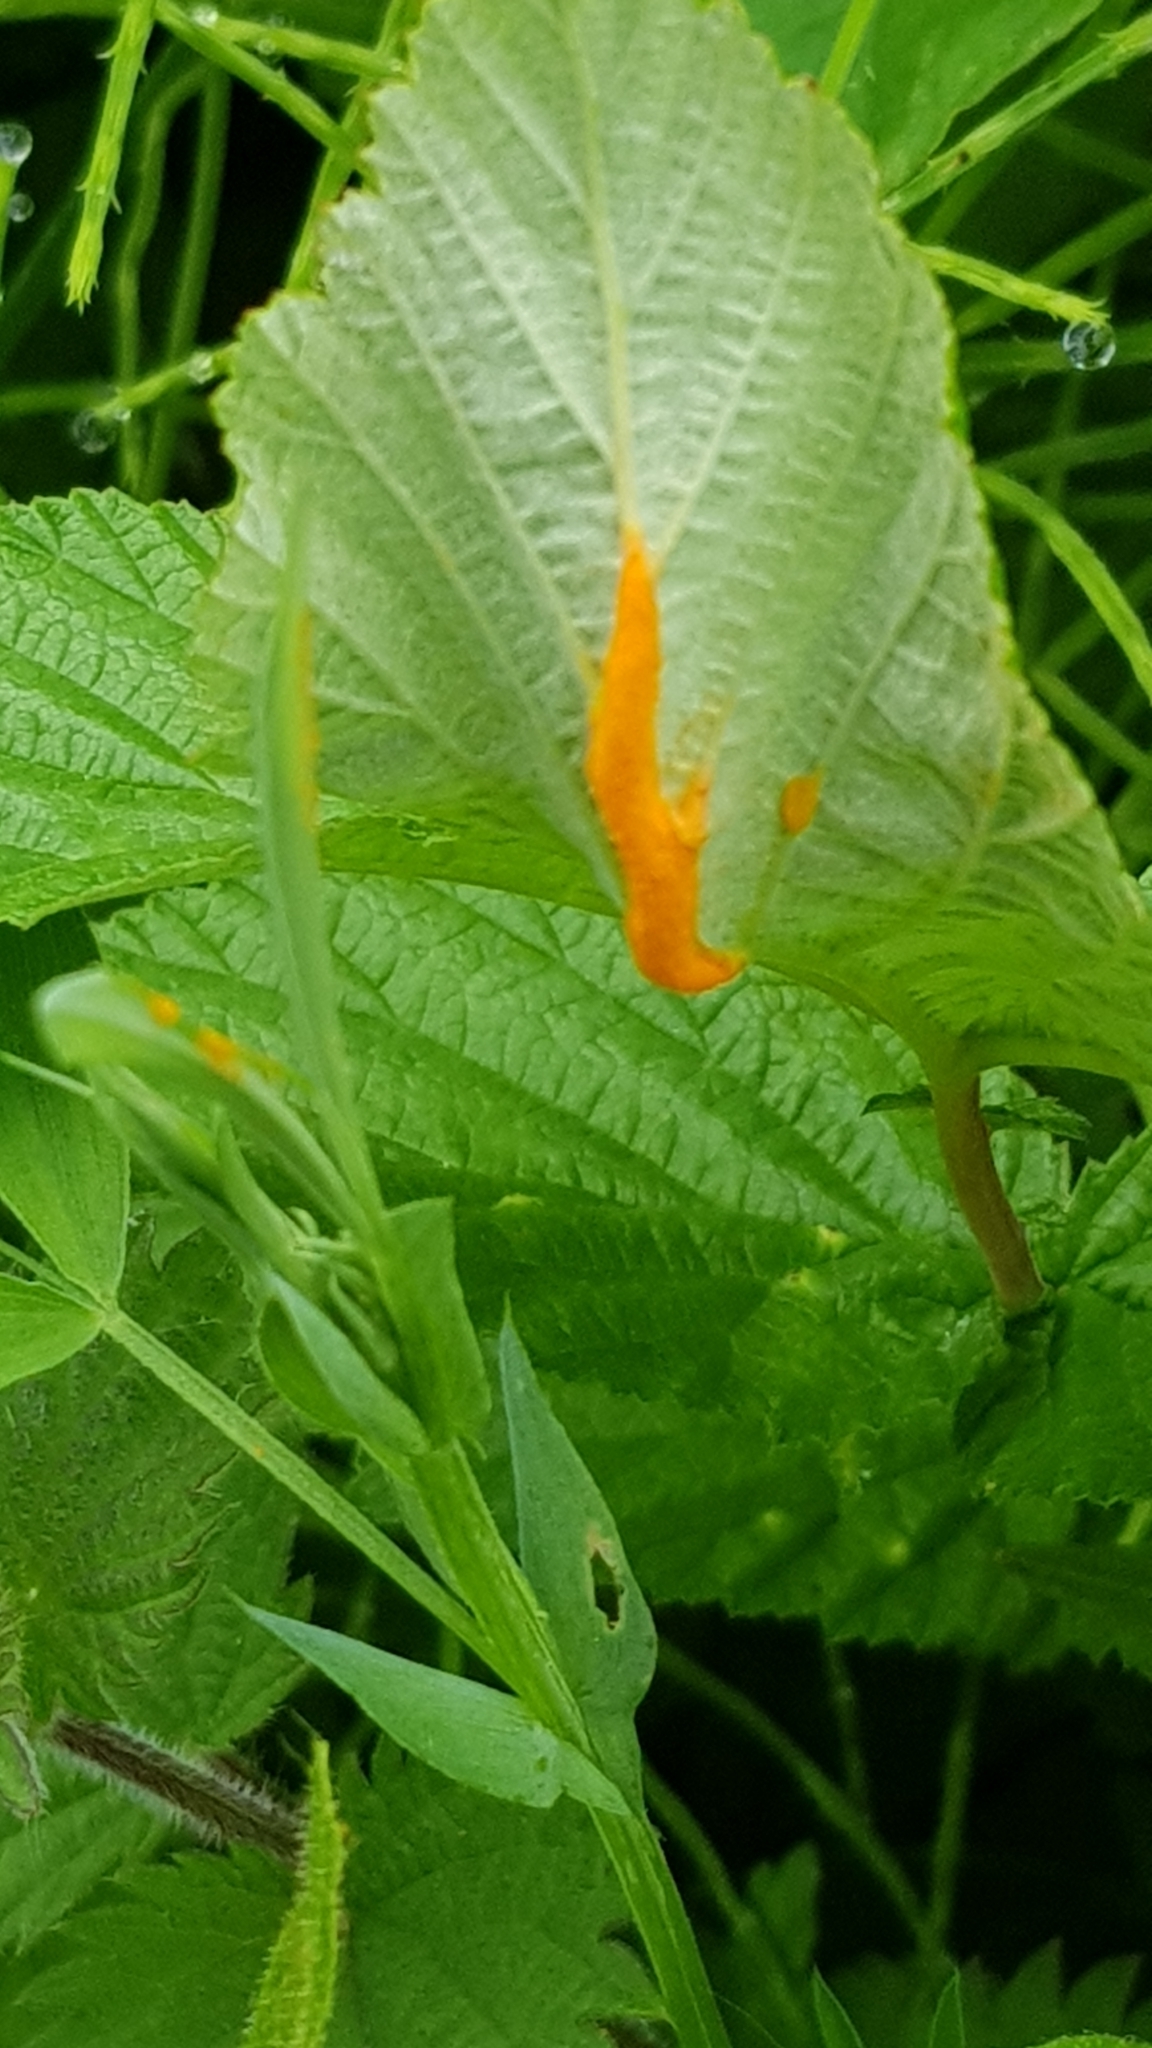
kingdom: Fungi
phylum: Basidiomycota
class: Pucciniomycetes
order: Pucciniales
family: Raveneliaceae
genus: Triphragmium
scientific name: Triphragmium ulmariae
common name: Meadowsweet rust
